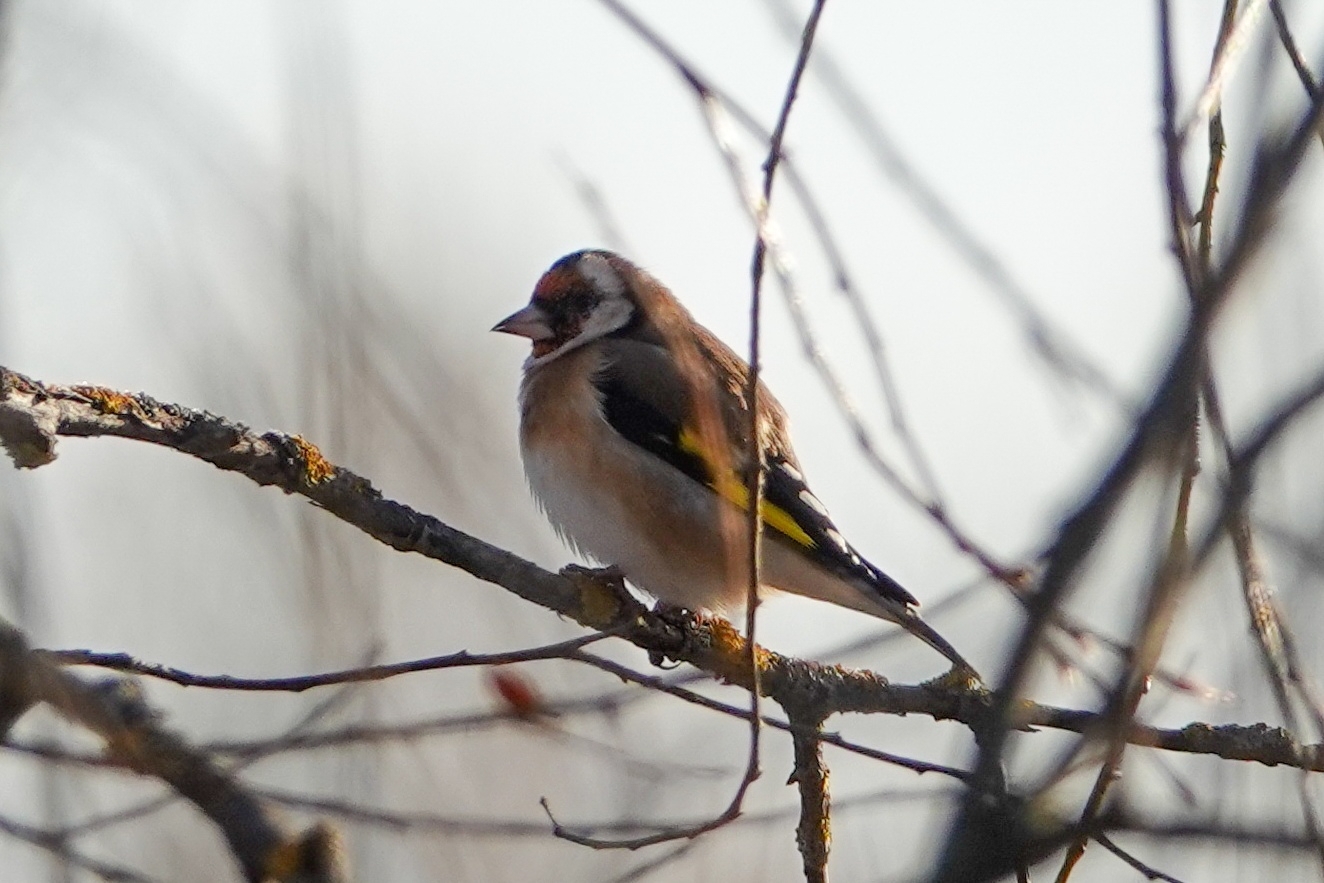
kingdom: Animalia
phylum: Chordata
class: Aves
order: Passeriformes
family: Fringillidae
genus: Carduelis
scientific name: Carduelis carduelis
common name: European goldfinch
